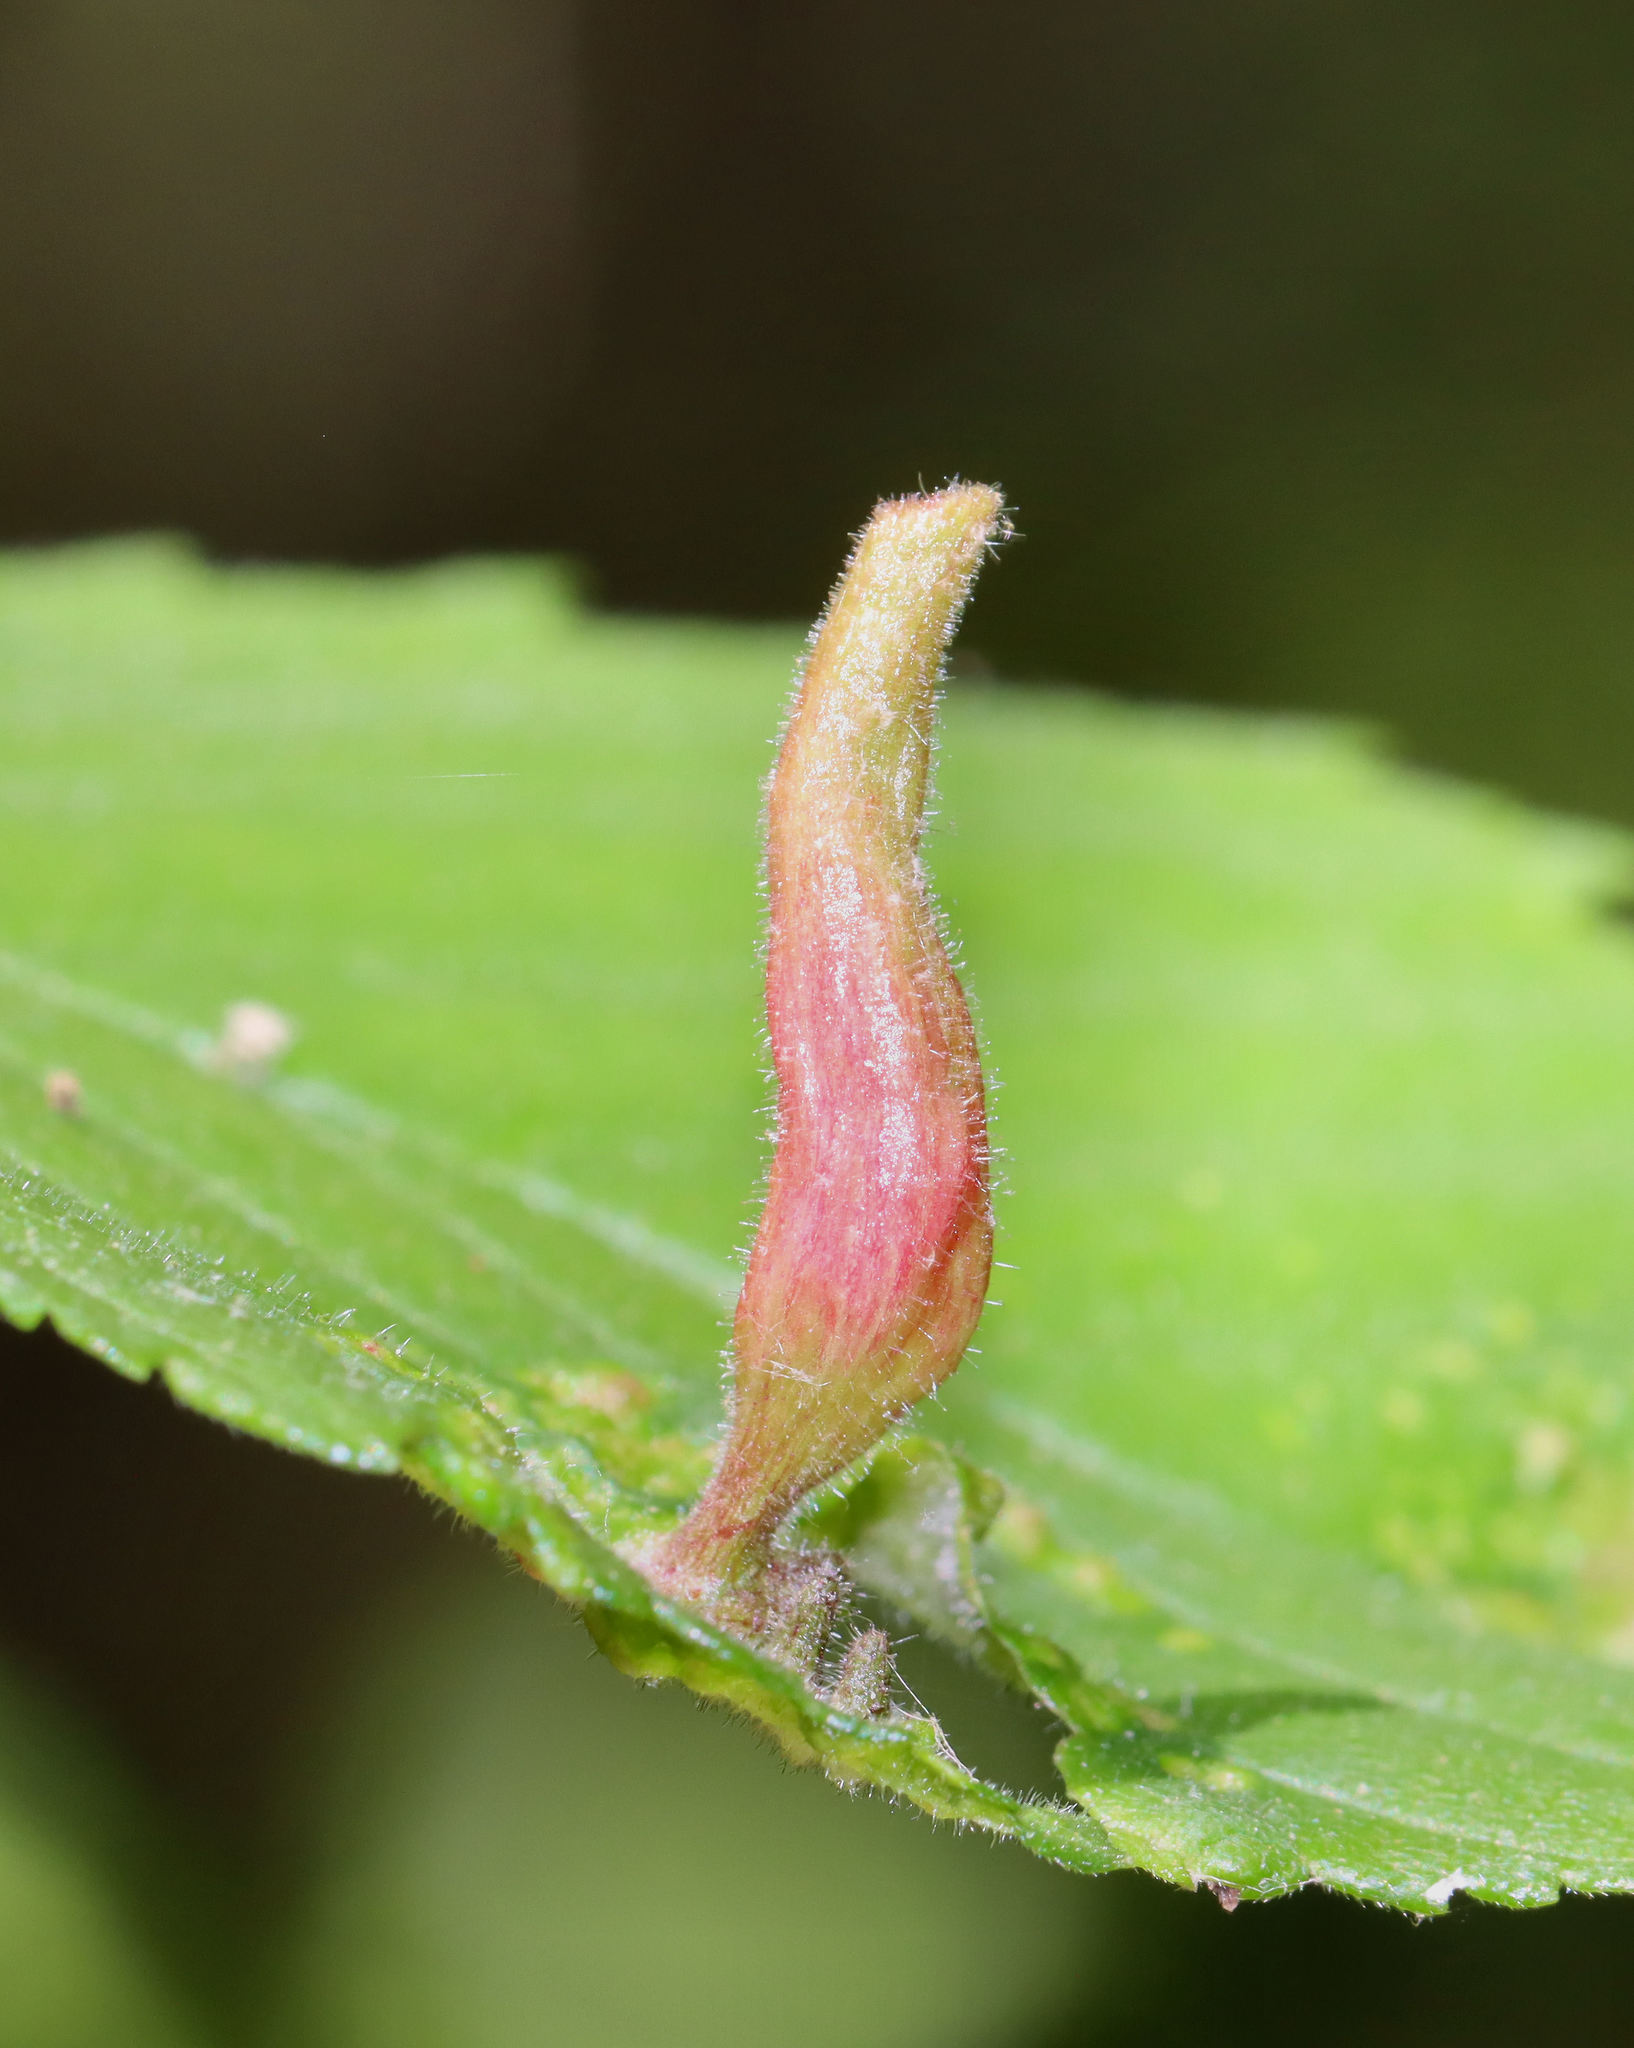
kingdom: Animalia
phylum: Arthropoda
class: Insecta
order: Hemiptera
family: Aphididae
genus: Tetraneura
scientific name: Tetraneura nigriabdominalis
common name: Aphid
